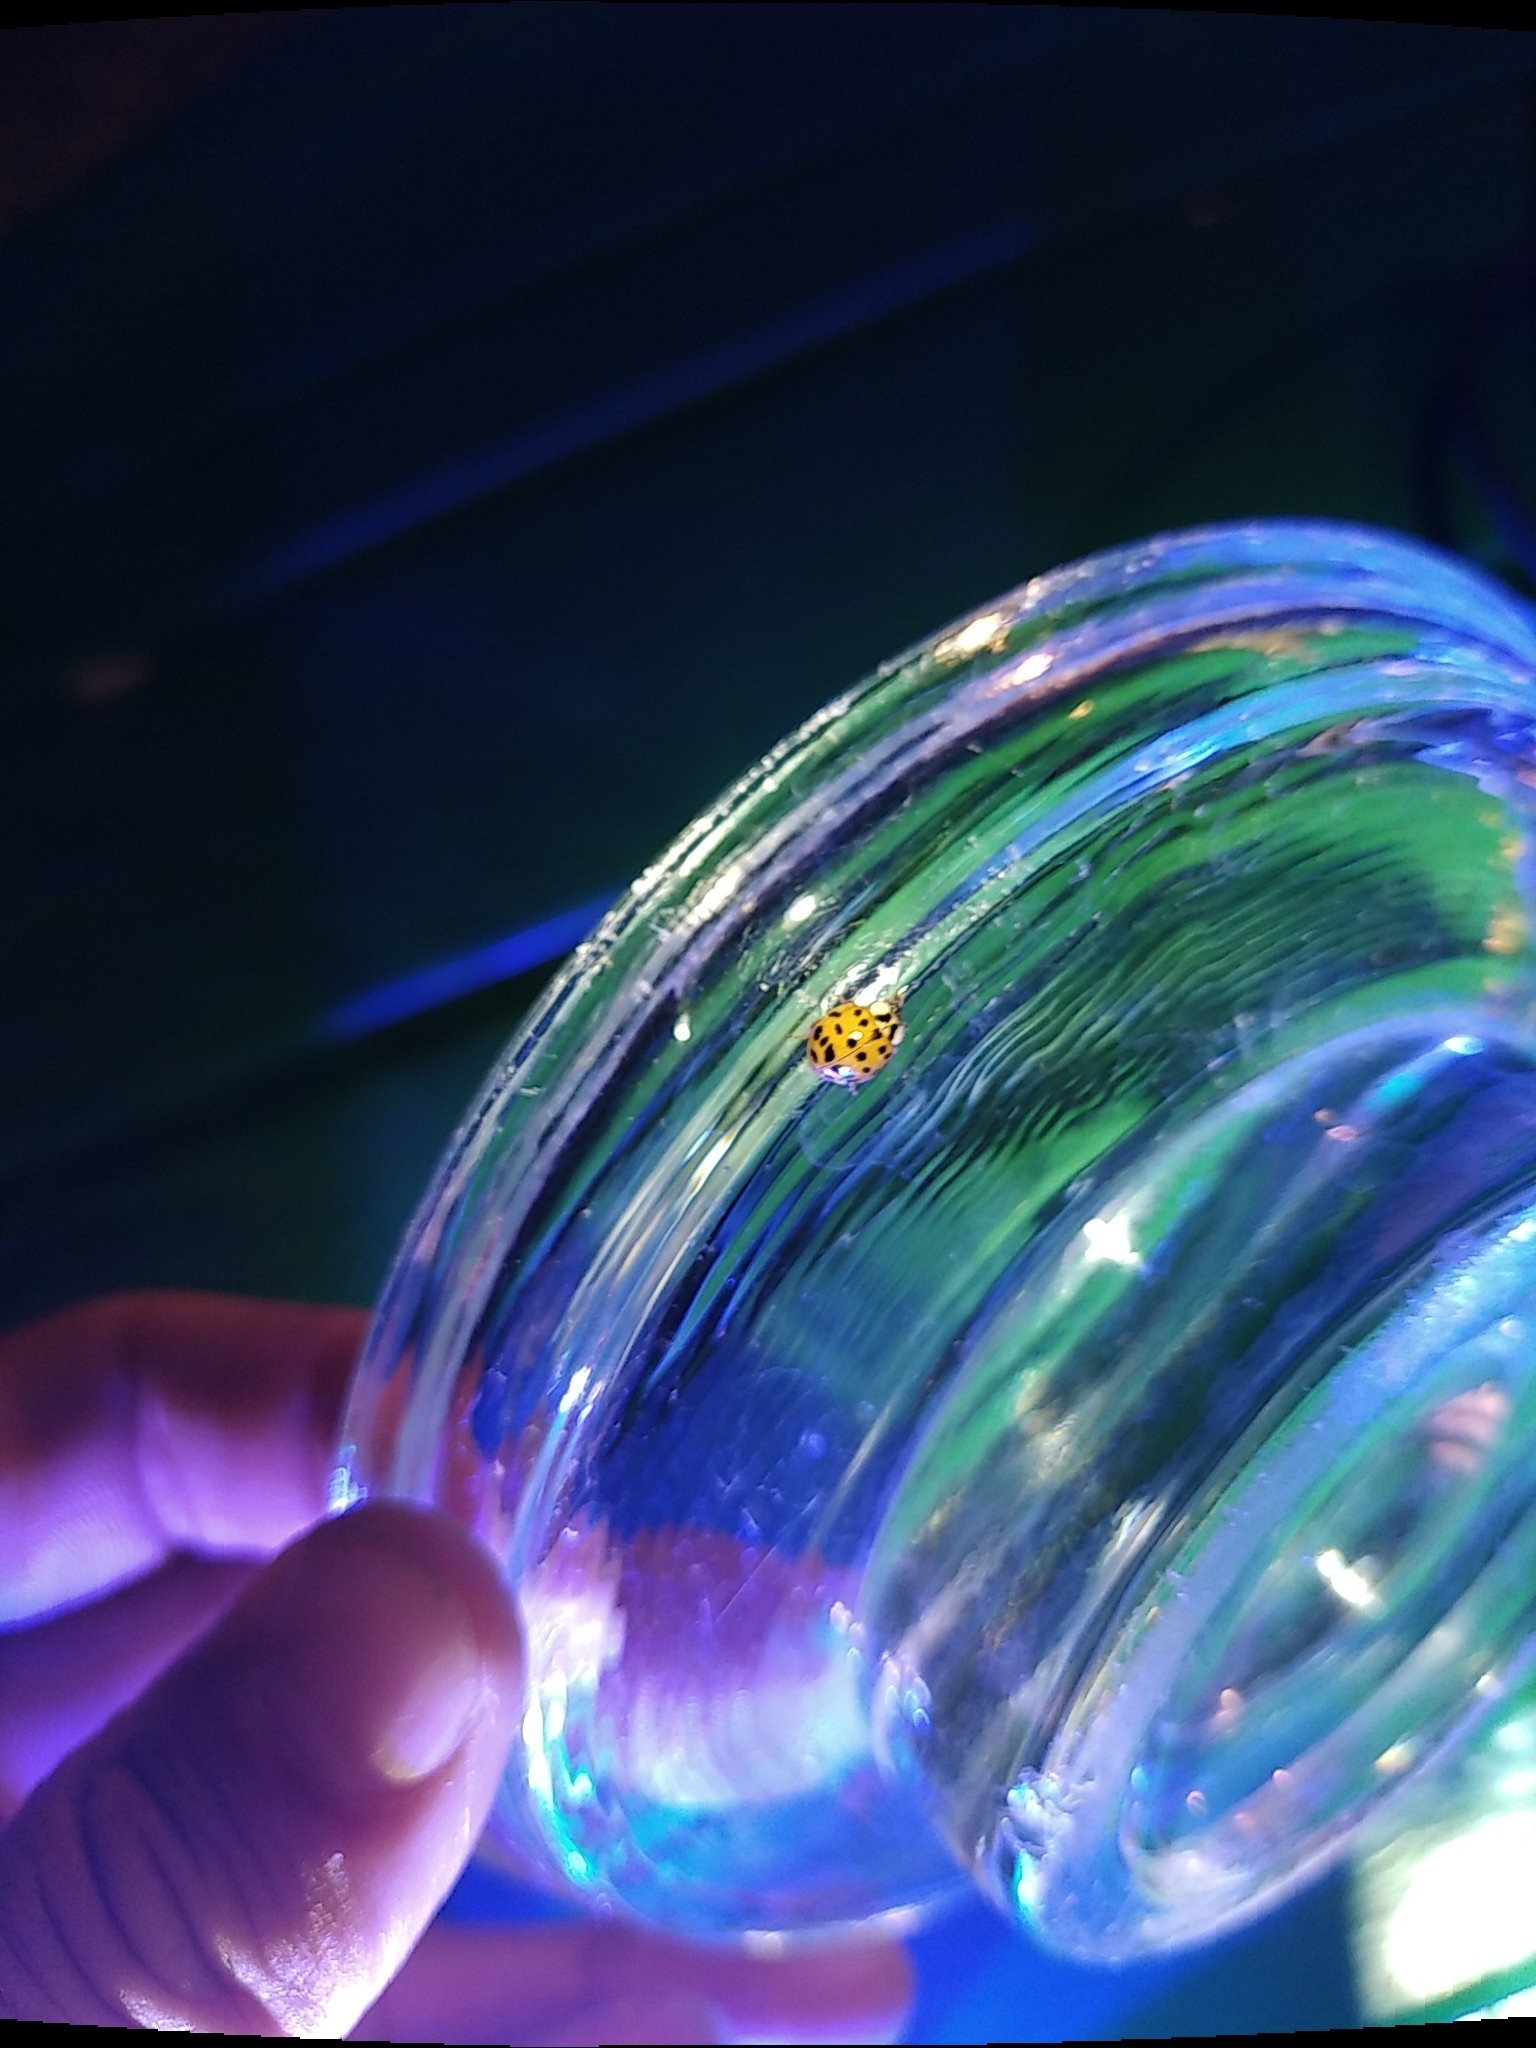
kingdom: Animalia
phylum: Arthropoda
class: Insecta
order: Coleoptera
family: Coccinellidae
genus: Harmonia
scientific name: Harmonia axyridis
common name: Harlequin ladybird
